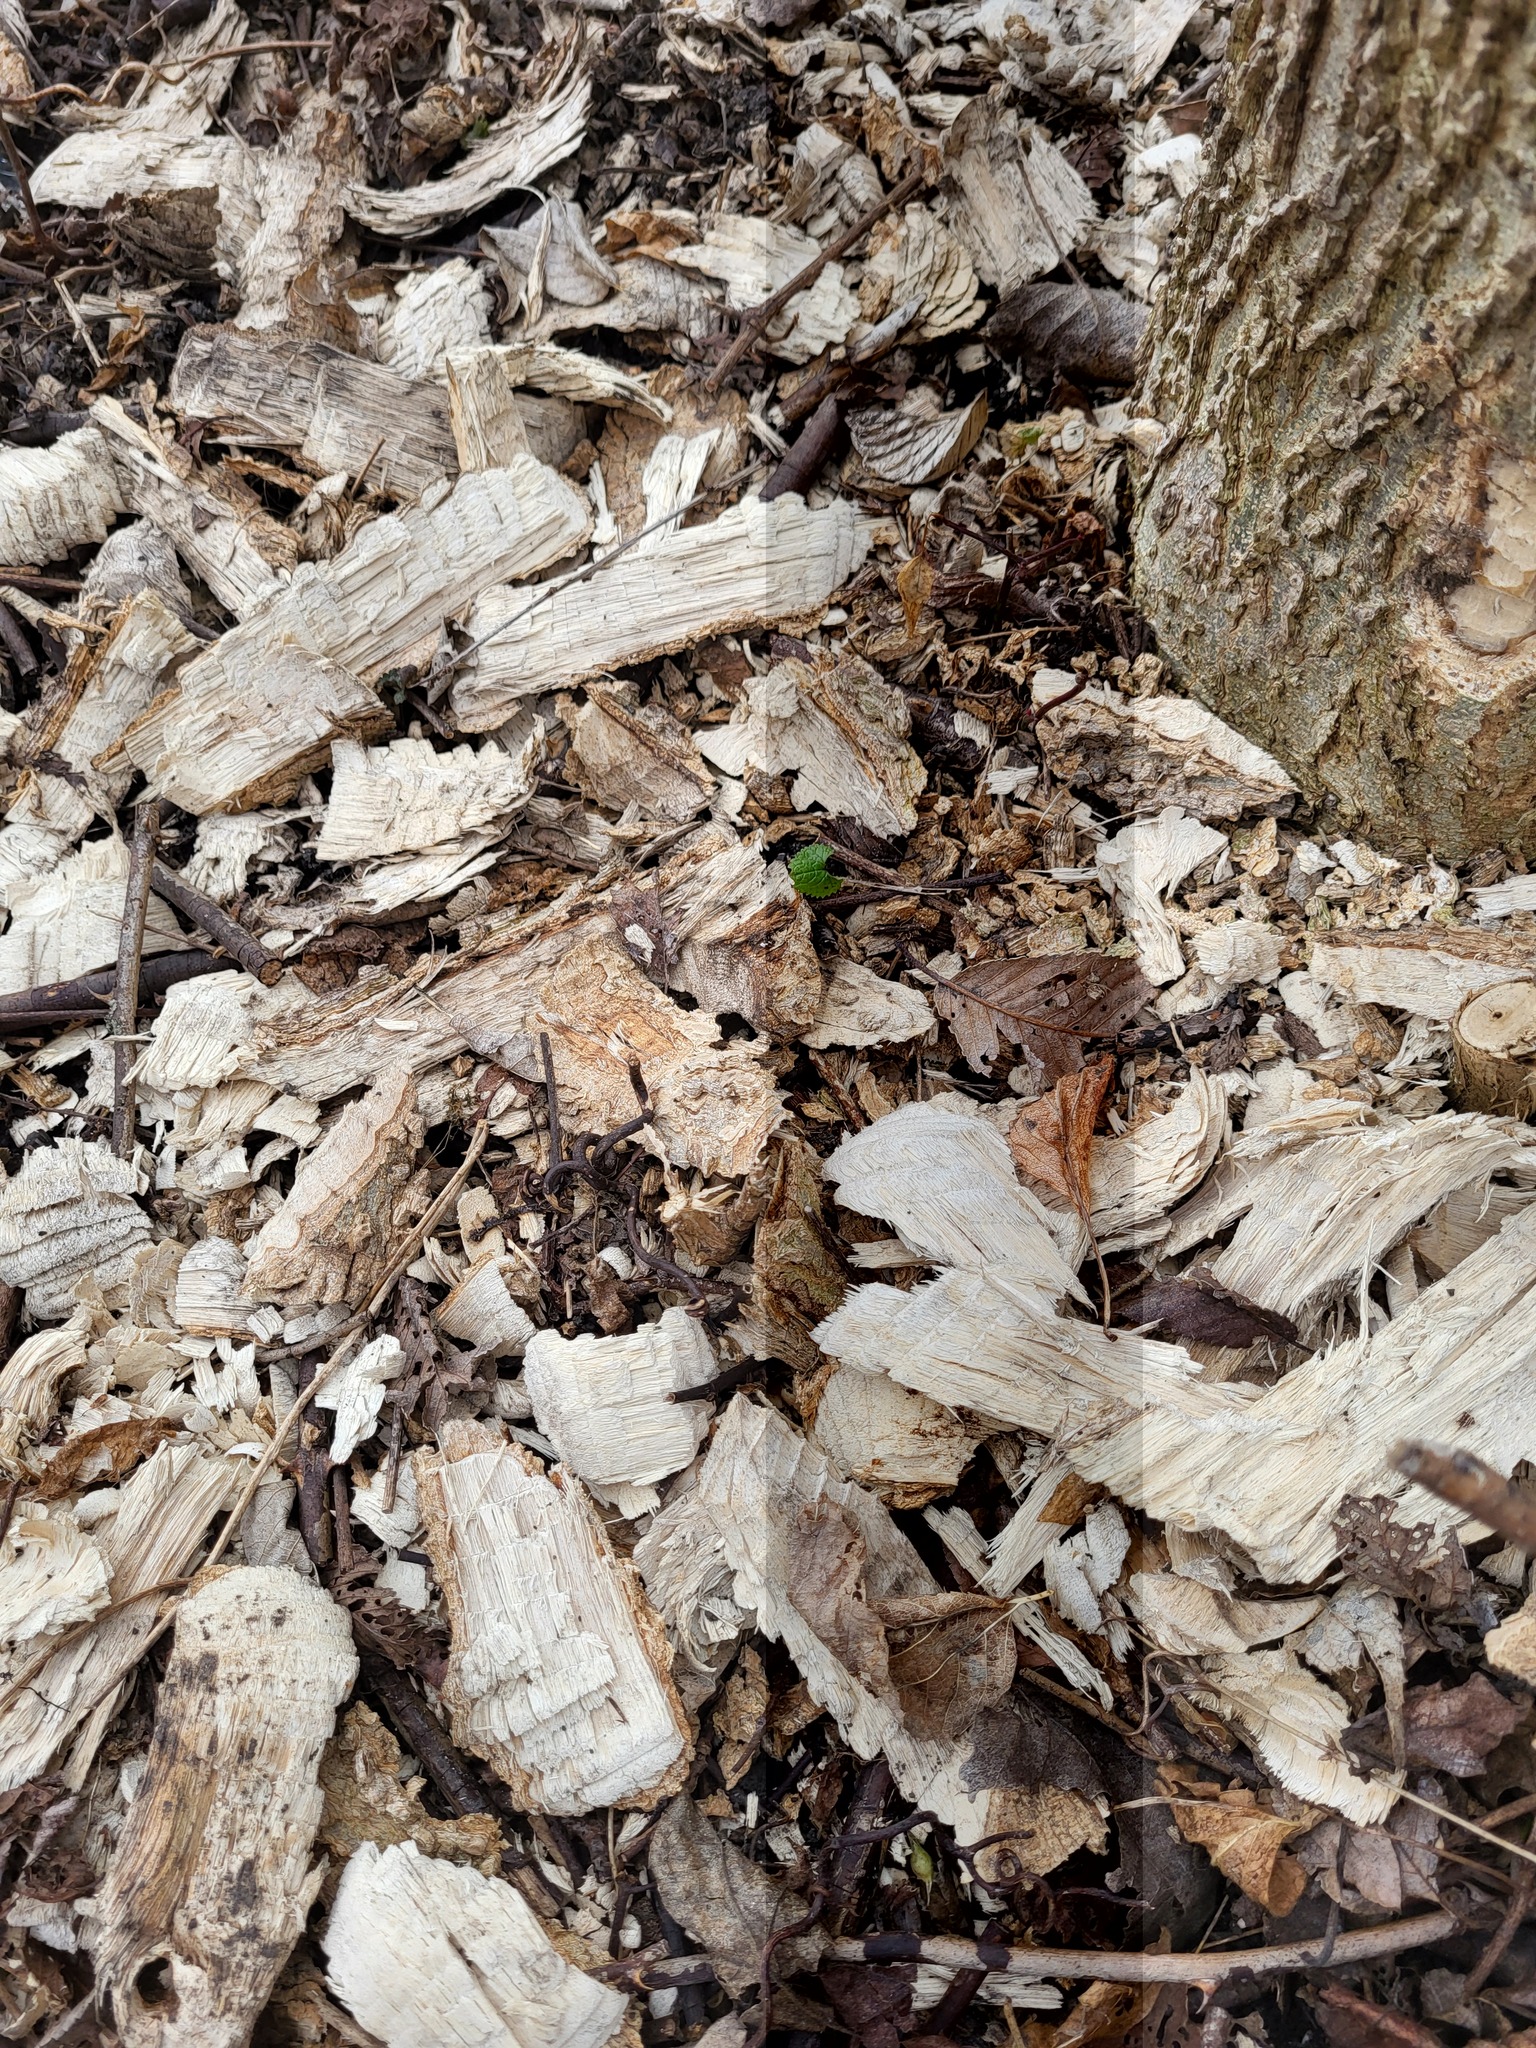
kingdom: Animalia
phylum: Chordata
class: Mammalia
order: Rodentia
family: Castoridae
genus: Castor
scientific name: Castor canadensis
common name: American beaver
